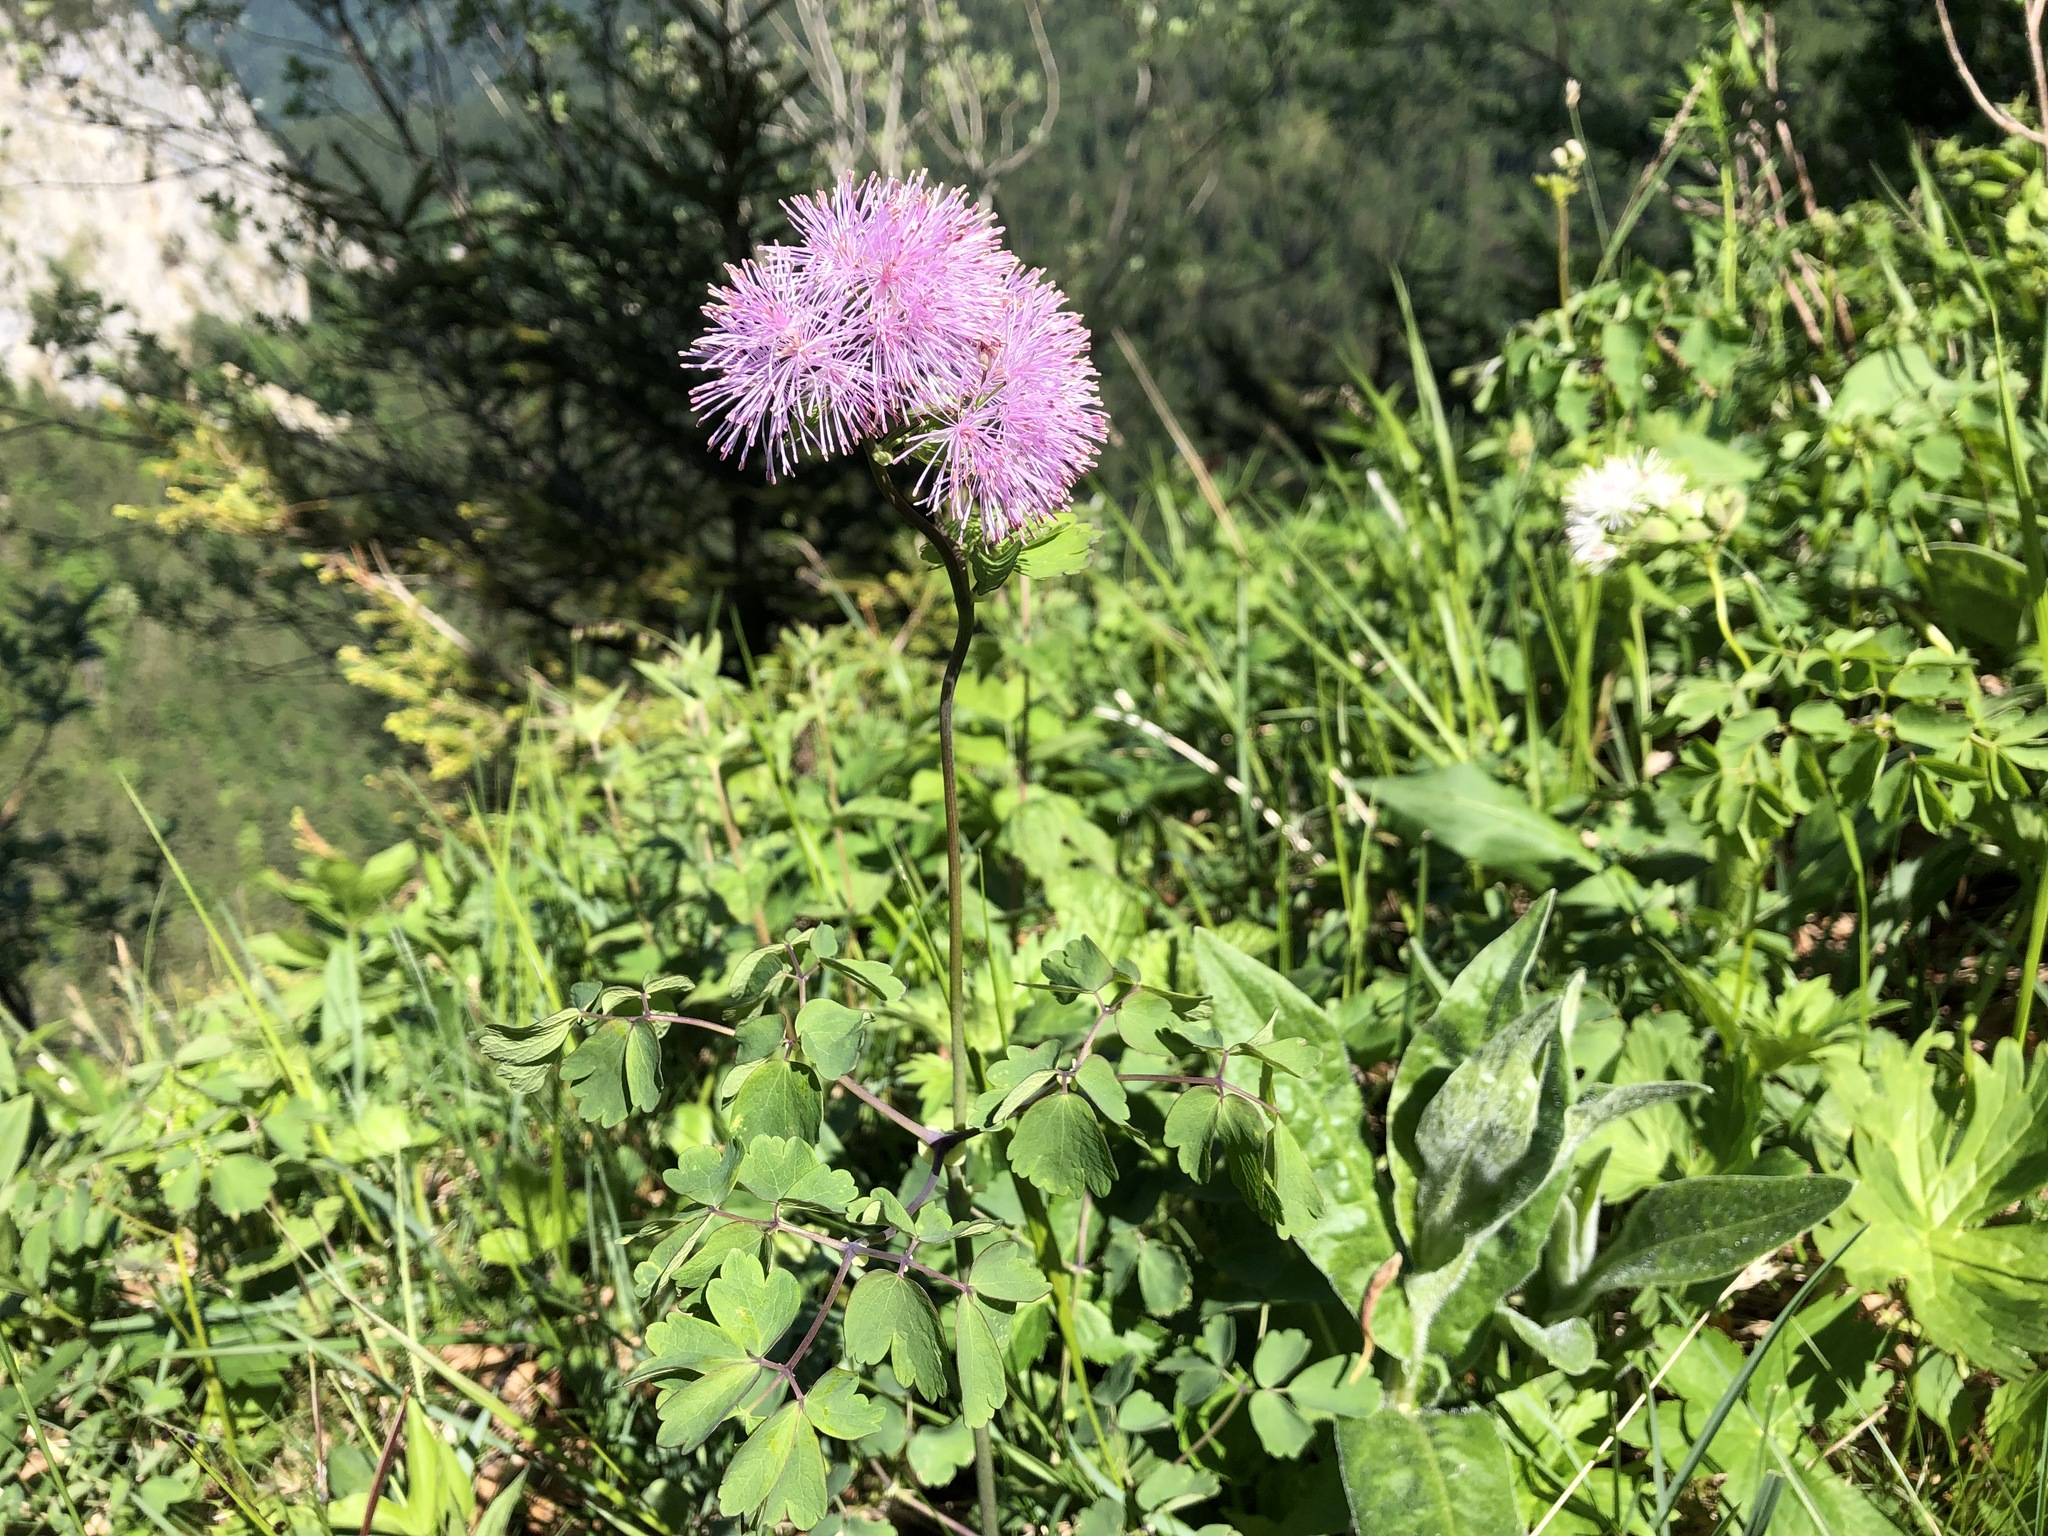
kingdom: Plantae
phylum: Tracheophyta
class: Magnoliopsida
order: Ranunculales
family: Ranunculaceae
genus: Thalictrum
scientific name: Thalictrum aquilegiifolium
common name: French meadow-rue
